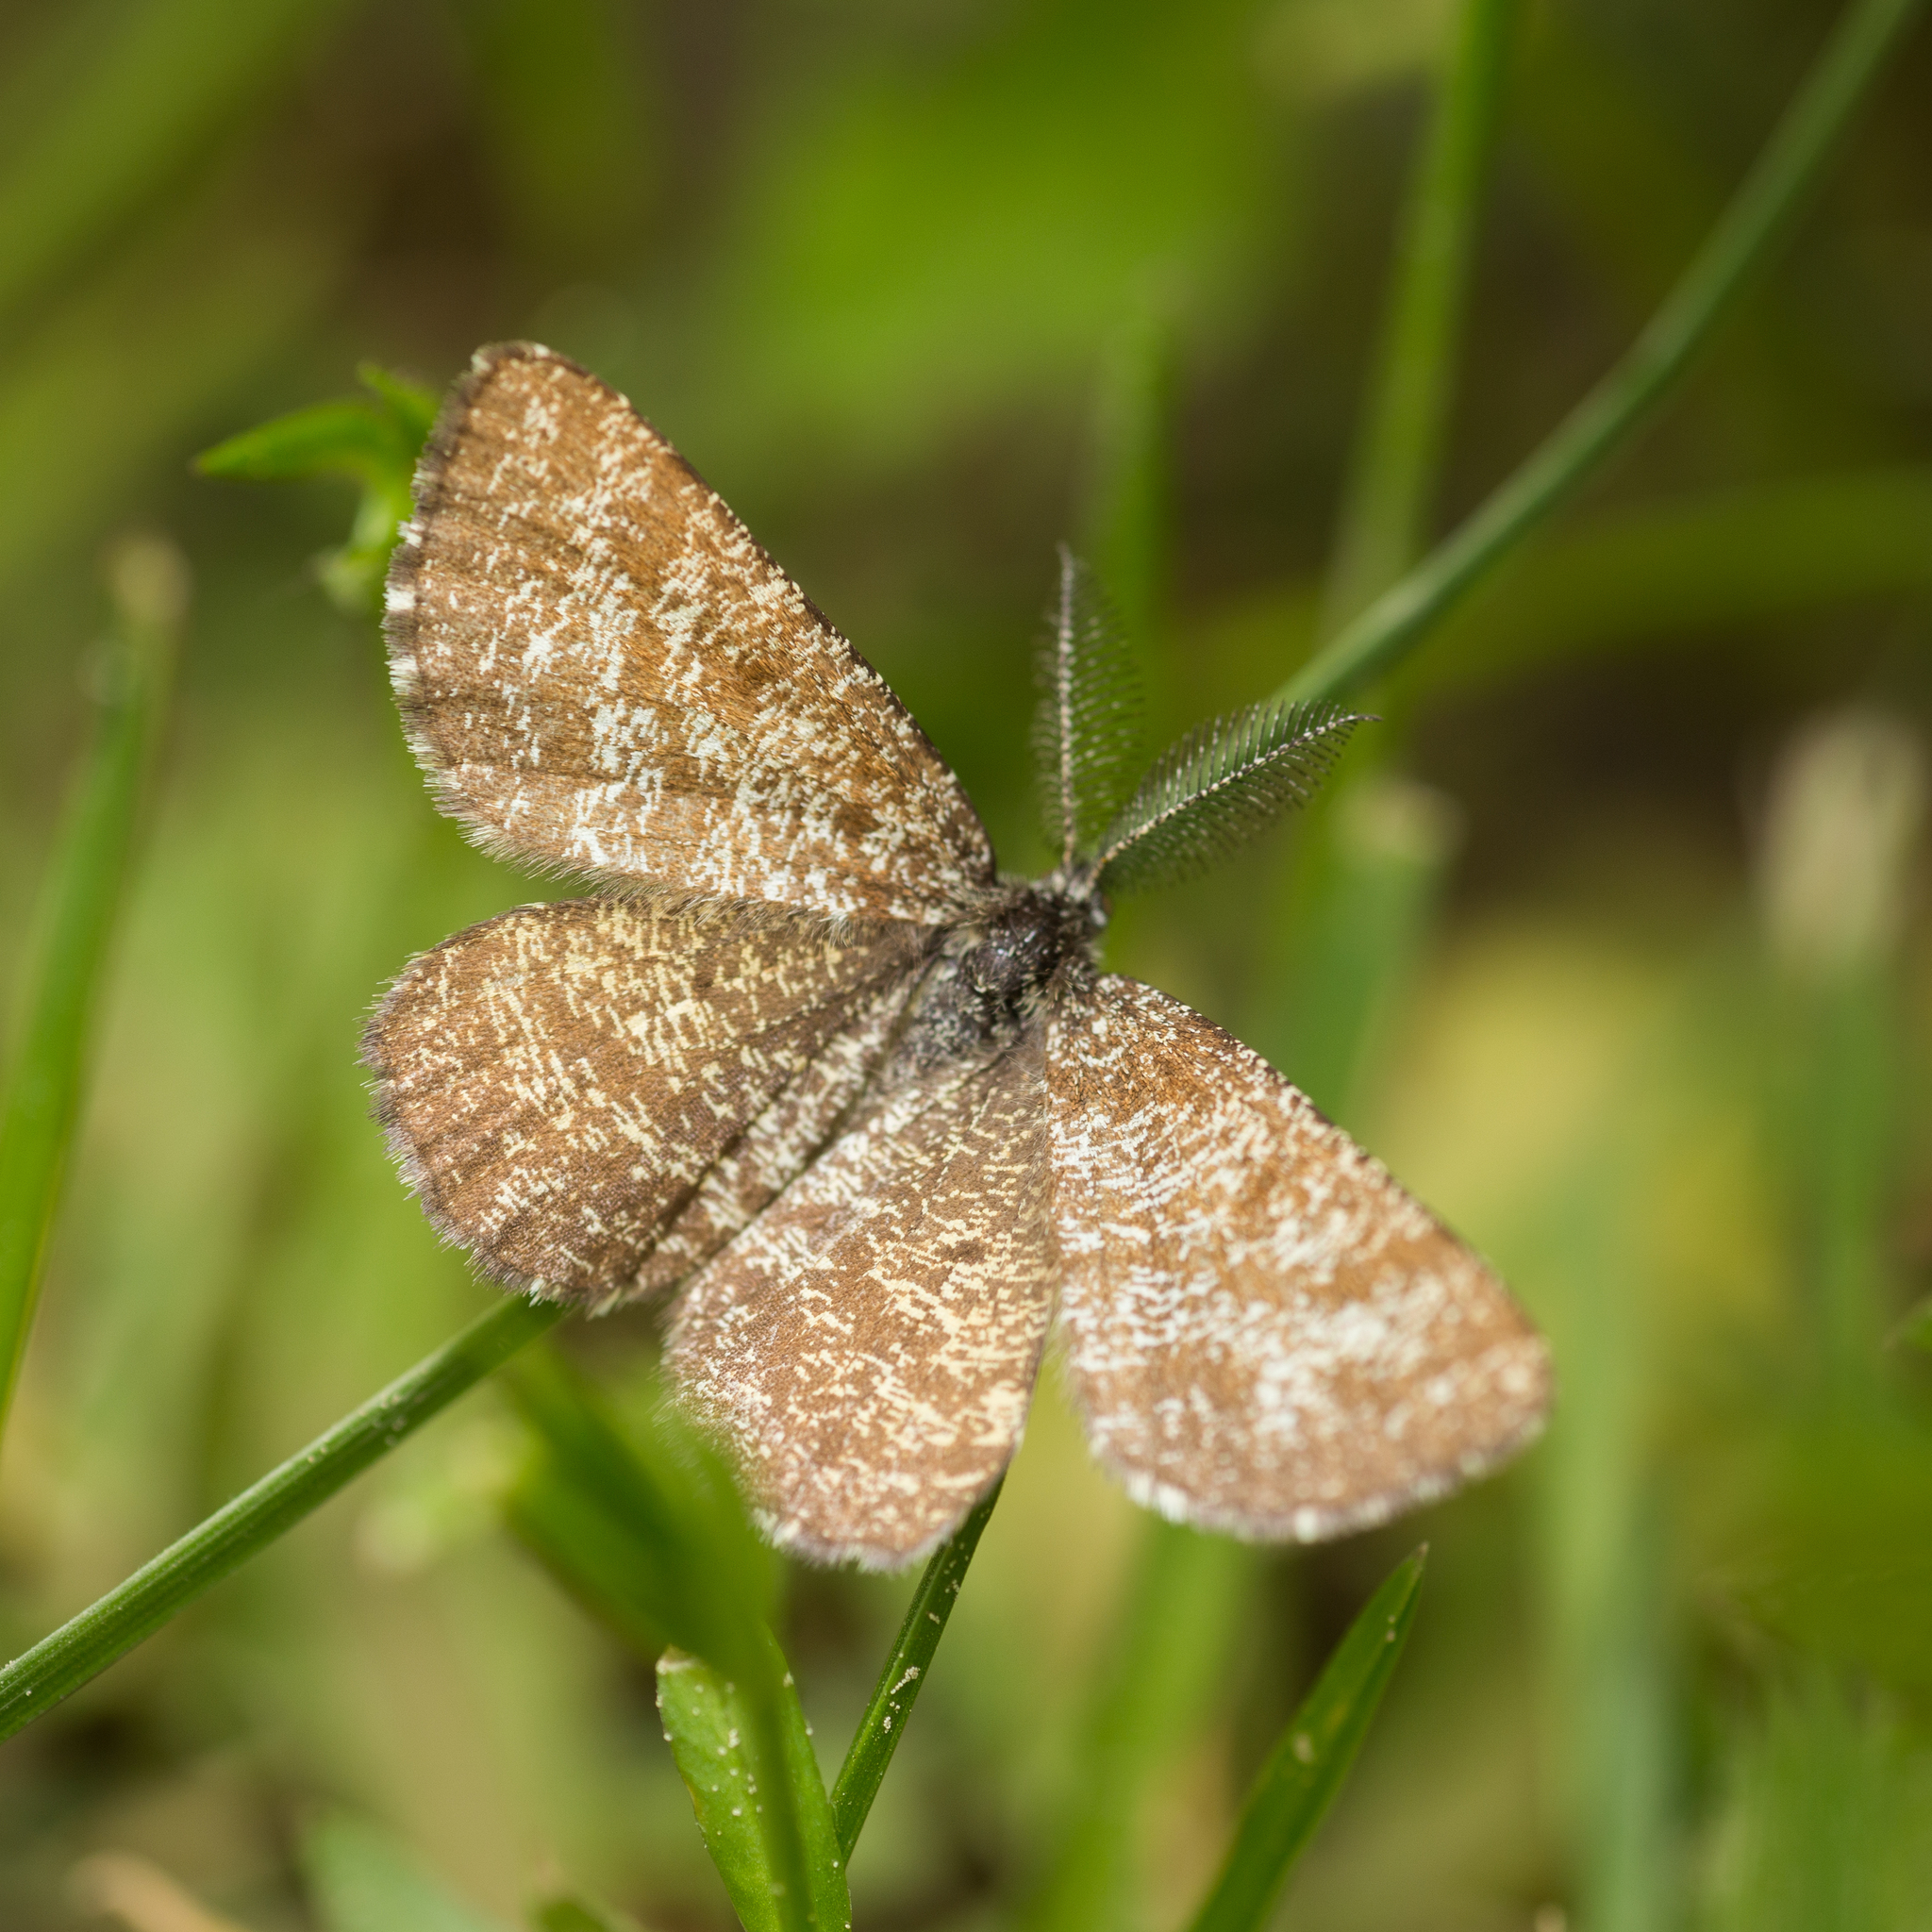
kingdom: Animalia
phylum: Arthropoda
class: Insecta
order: Lepidoptera
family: Geometridae
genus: Ematurga
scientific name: Ematurga atomaria
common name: Common heath
